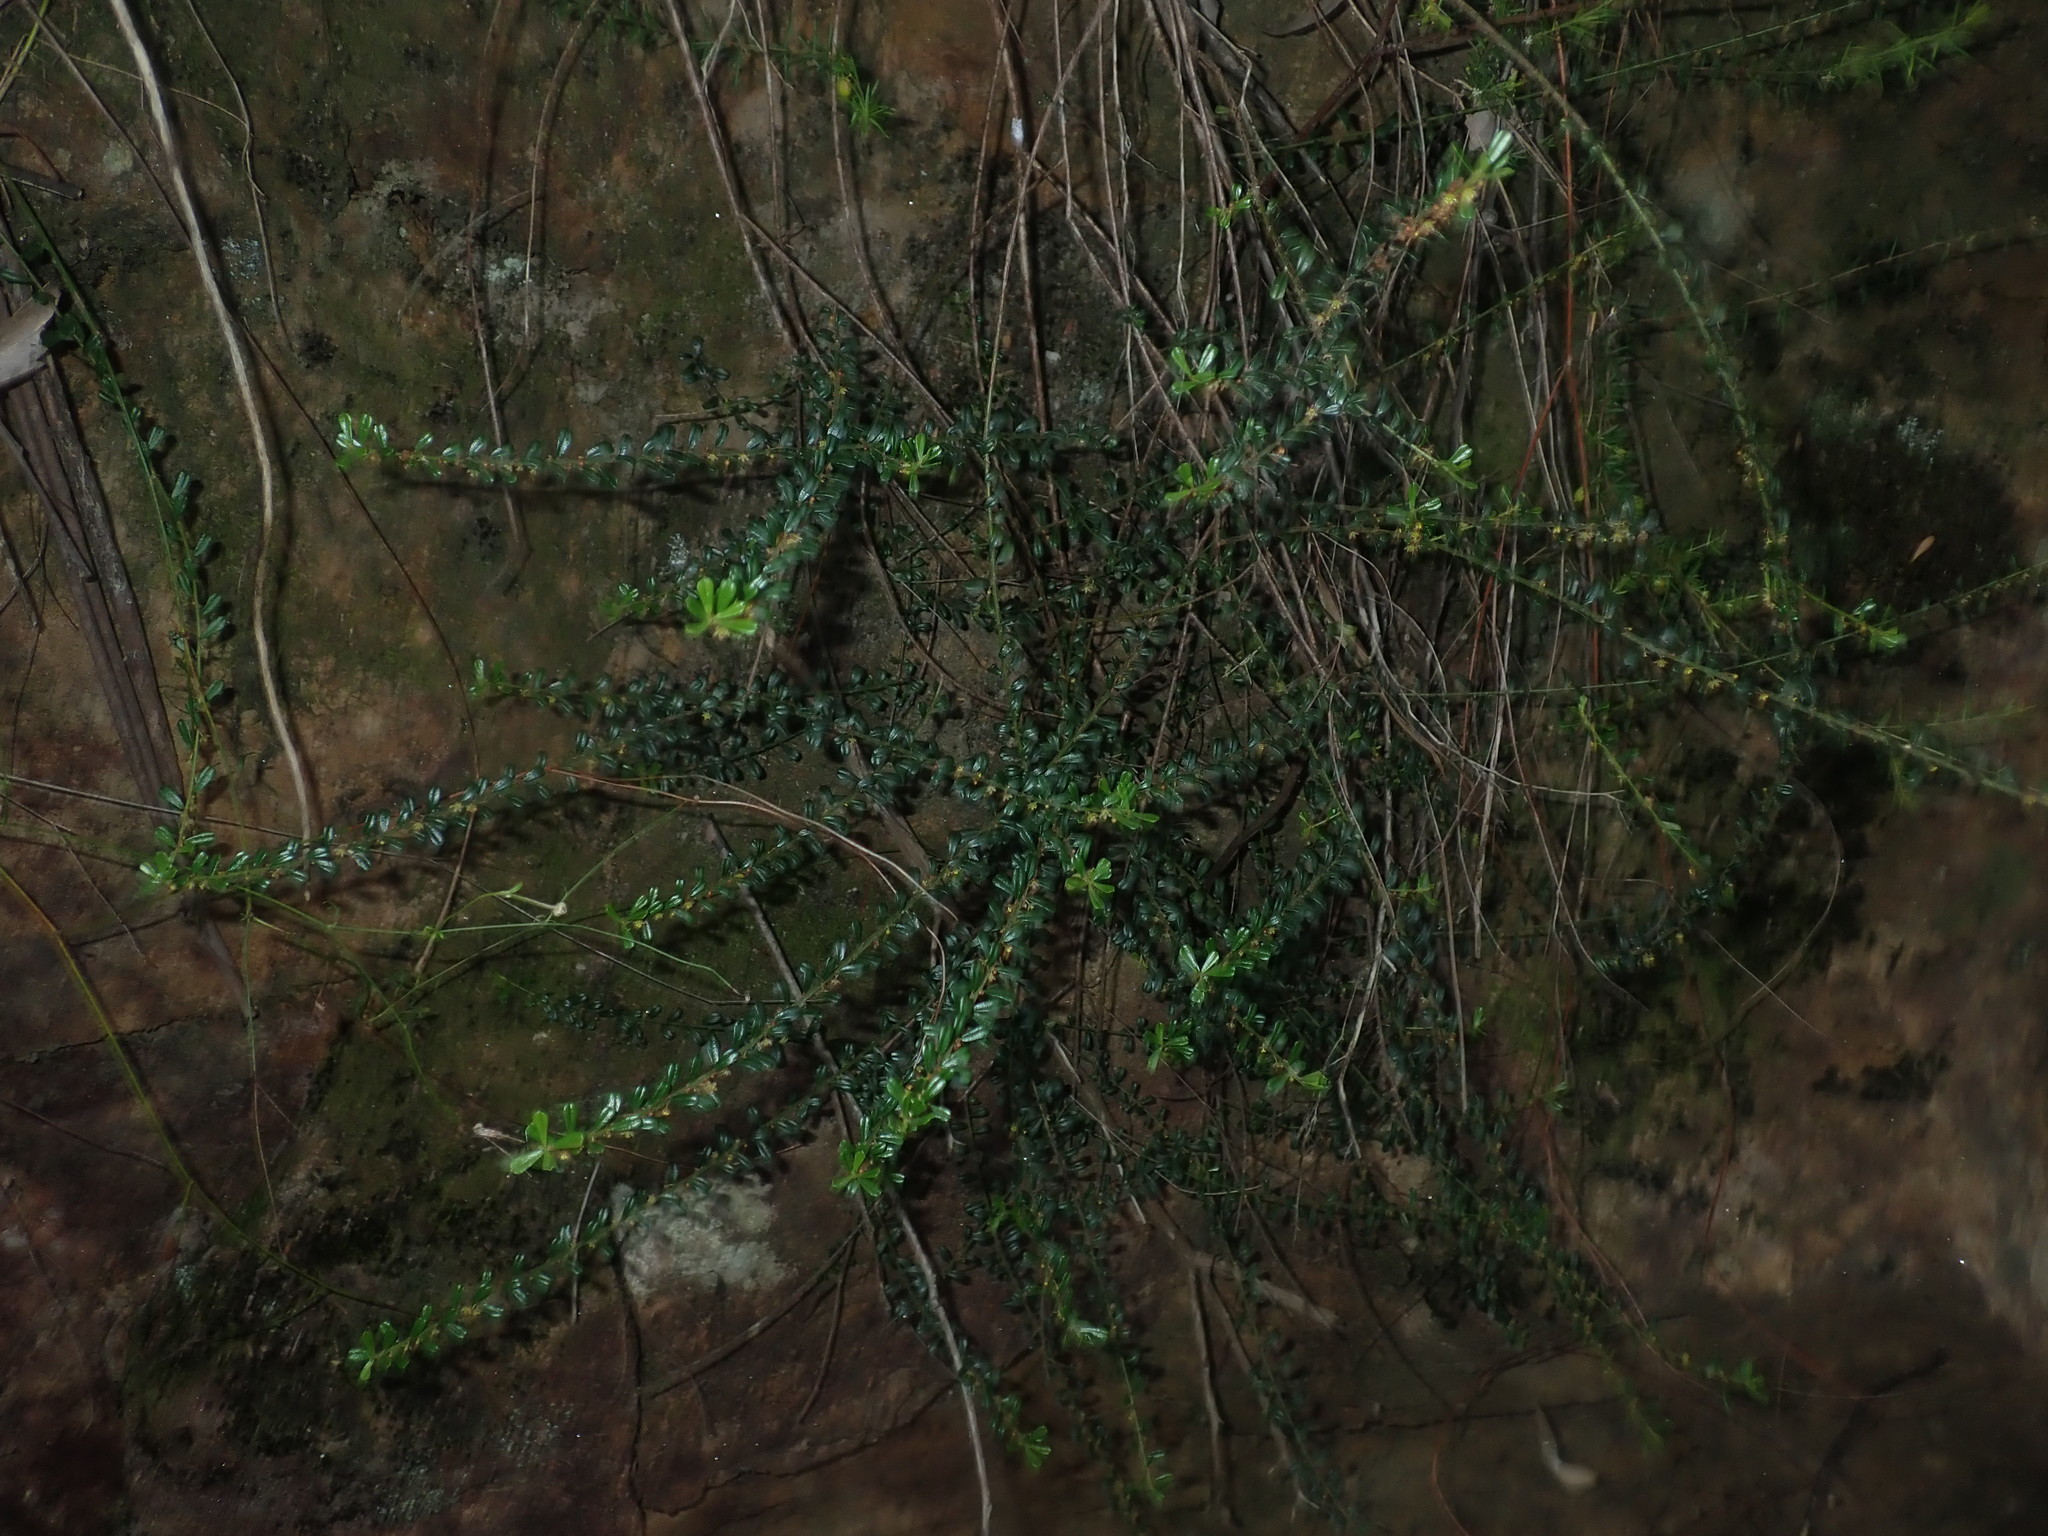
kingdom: Plantae
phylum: Tracheophyta
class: Magnoliopsida
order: Malpighiales
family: Phyllanthaceae
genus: Phyllanthus
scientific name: Phyllanthus hirtellus
